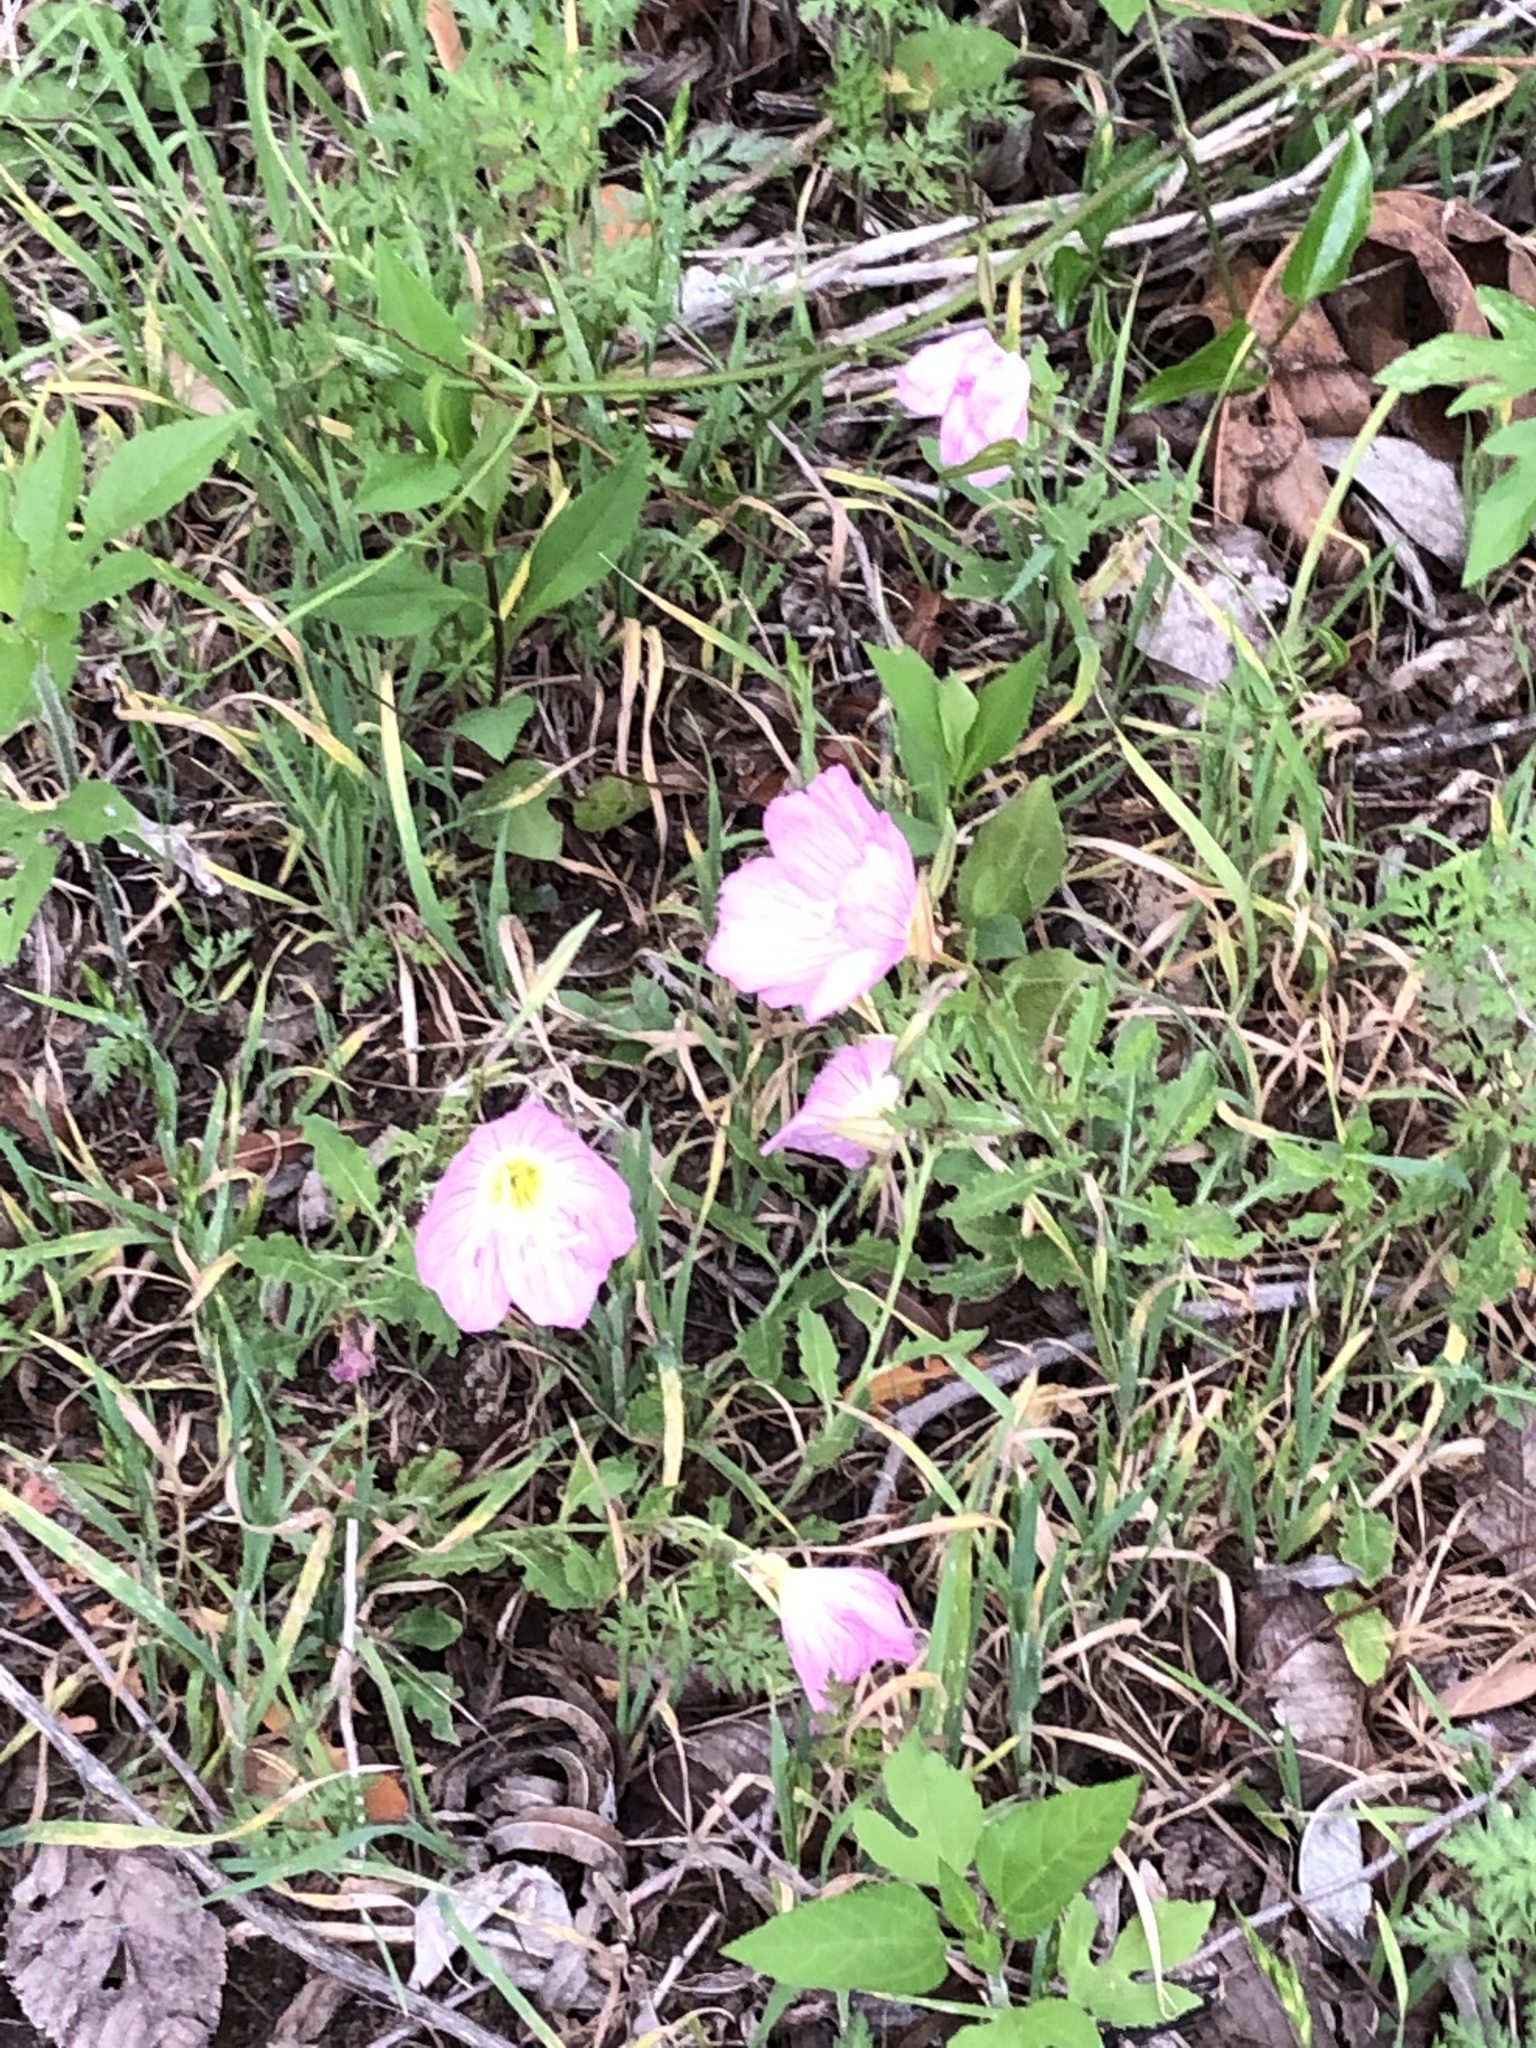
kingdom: Plantae
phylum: Tracheophyta
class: Magnoliopsida
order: Myrtales
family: Onagraceae
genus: Oenothera
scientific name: Oenothera speciosa
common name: White evening-primrose
